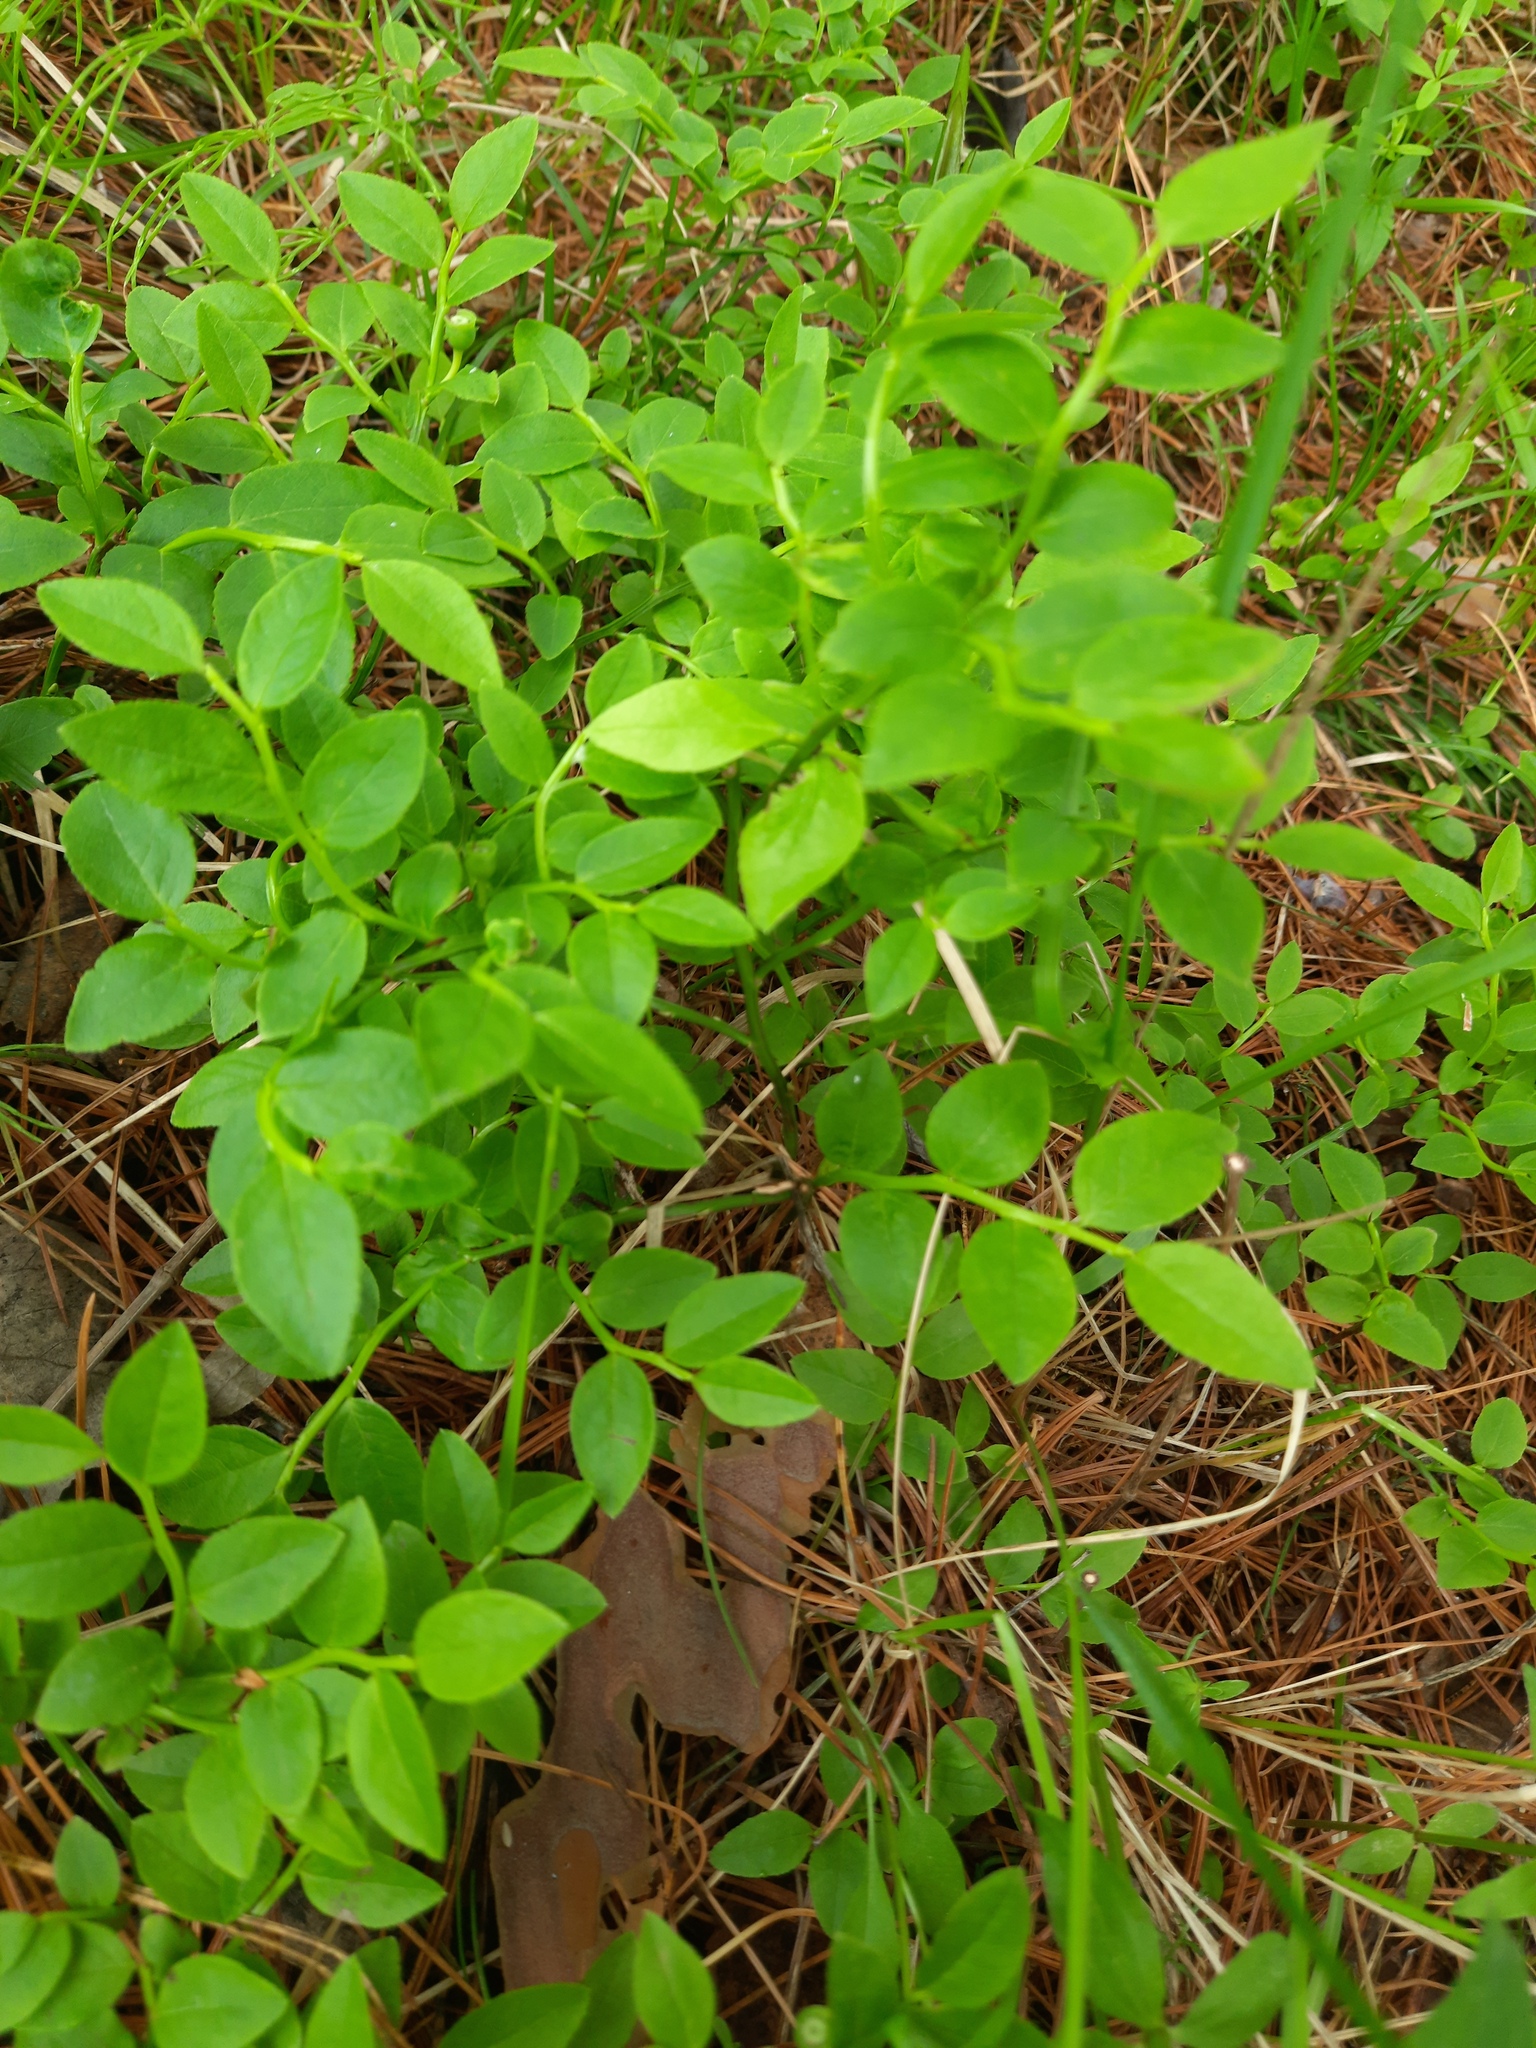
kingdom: Plantae
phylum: Tracheophyta
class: Magnoliopsida
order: Ericales
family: Ericaceae
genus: Vaccinium
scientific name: Vaccinium myrtillus
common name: Bilberry
